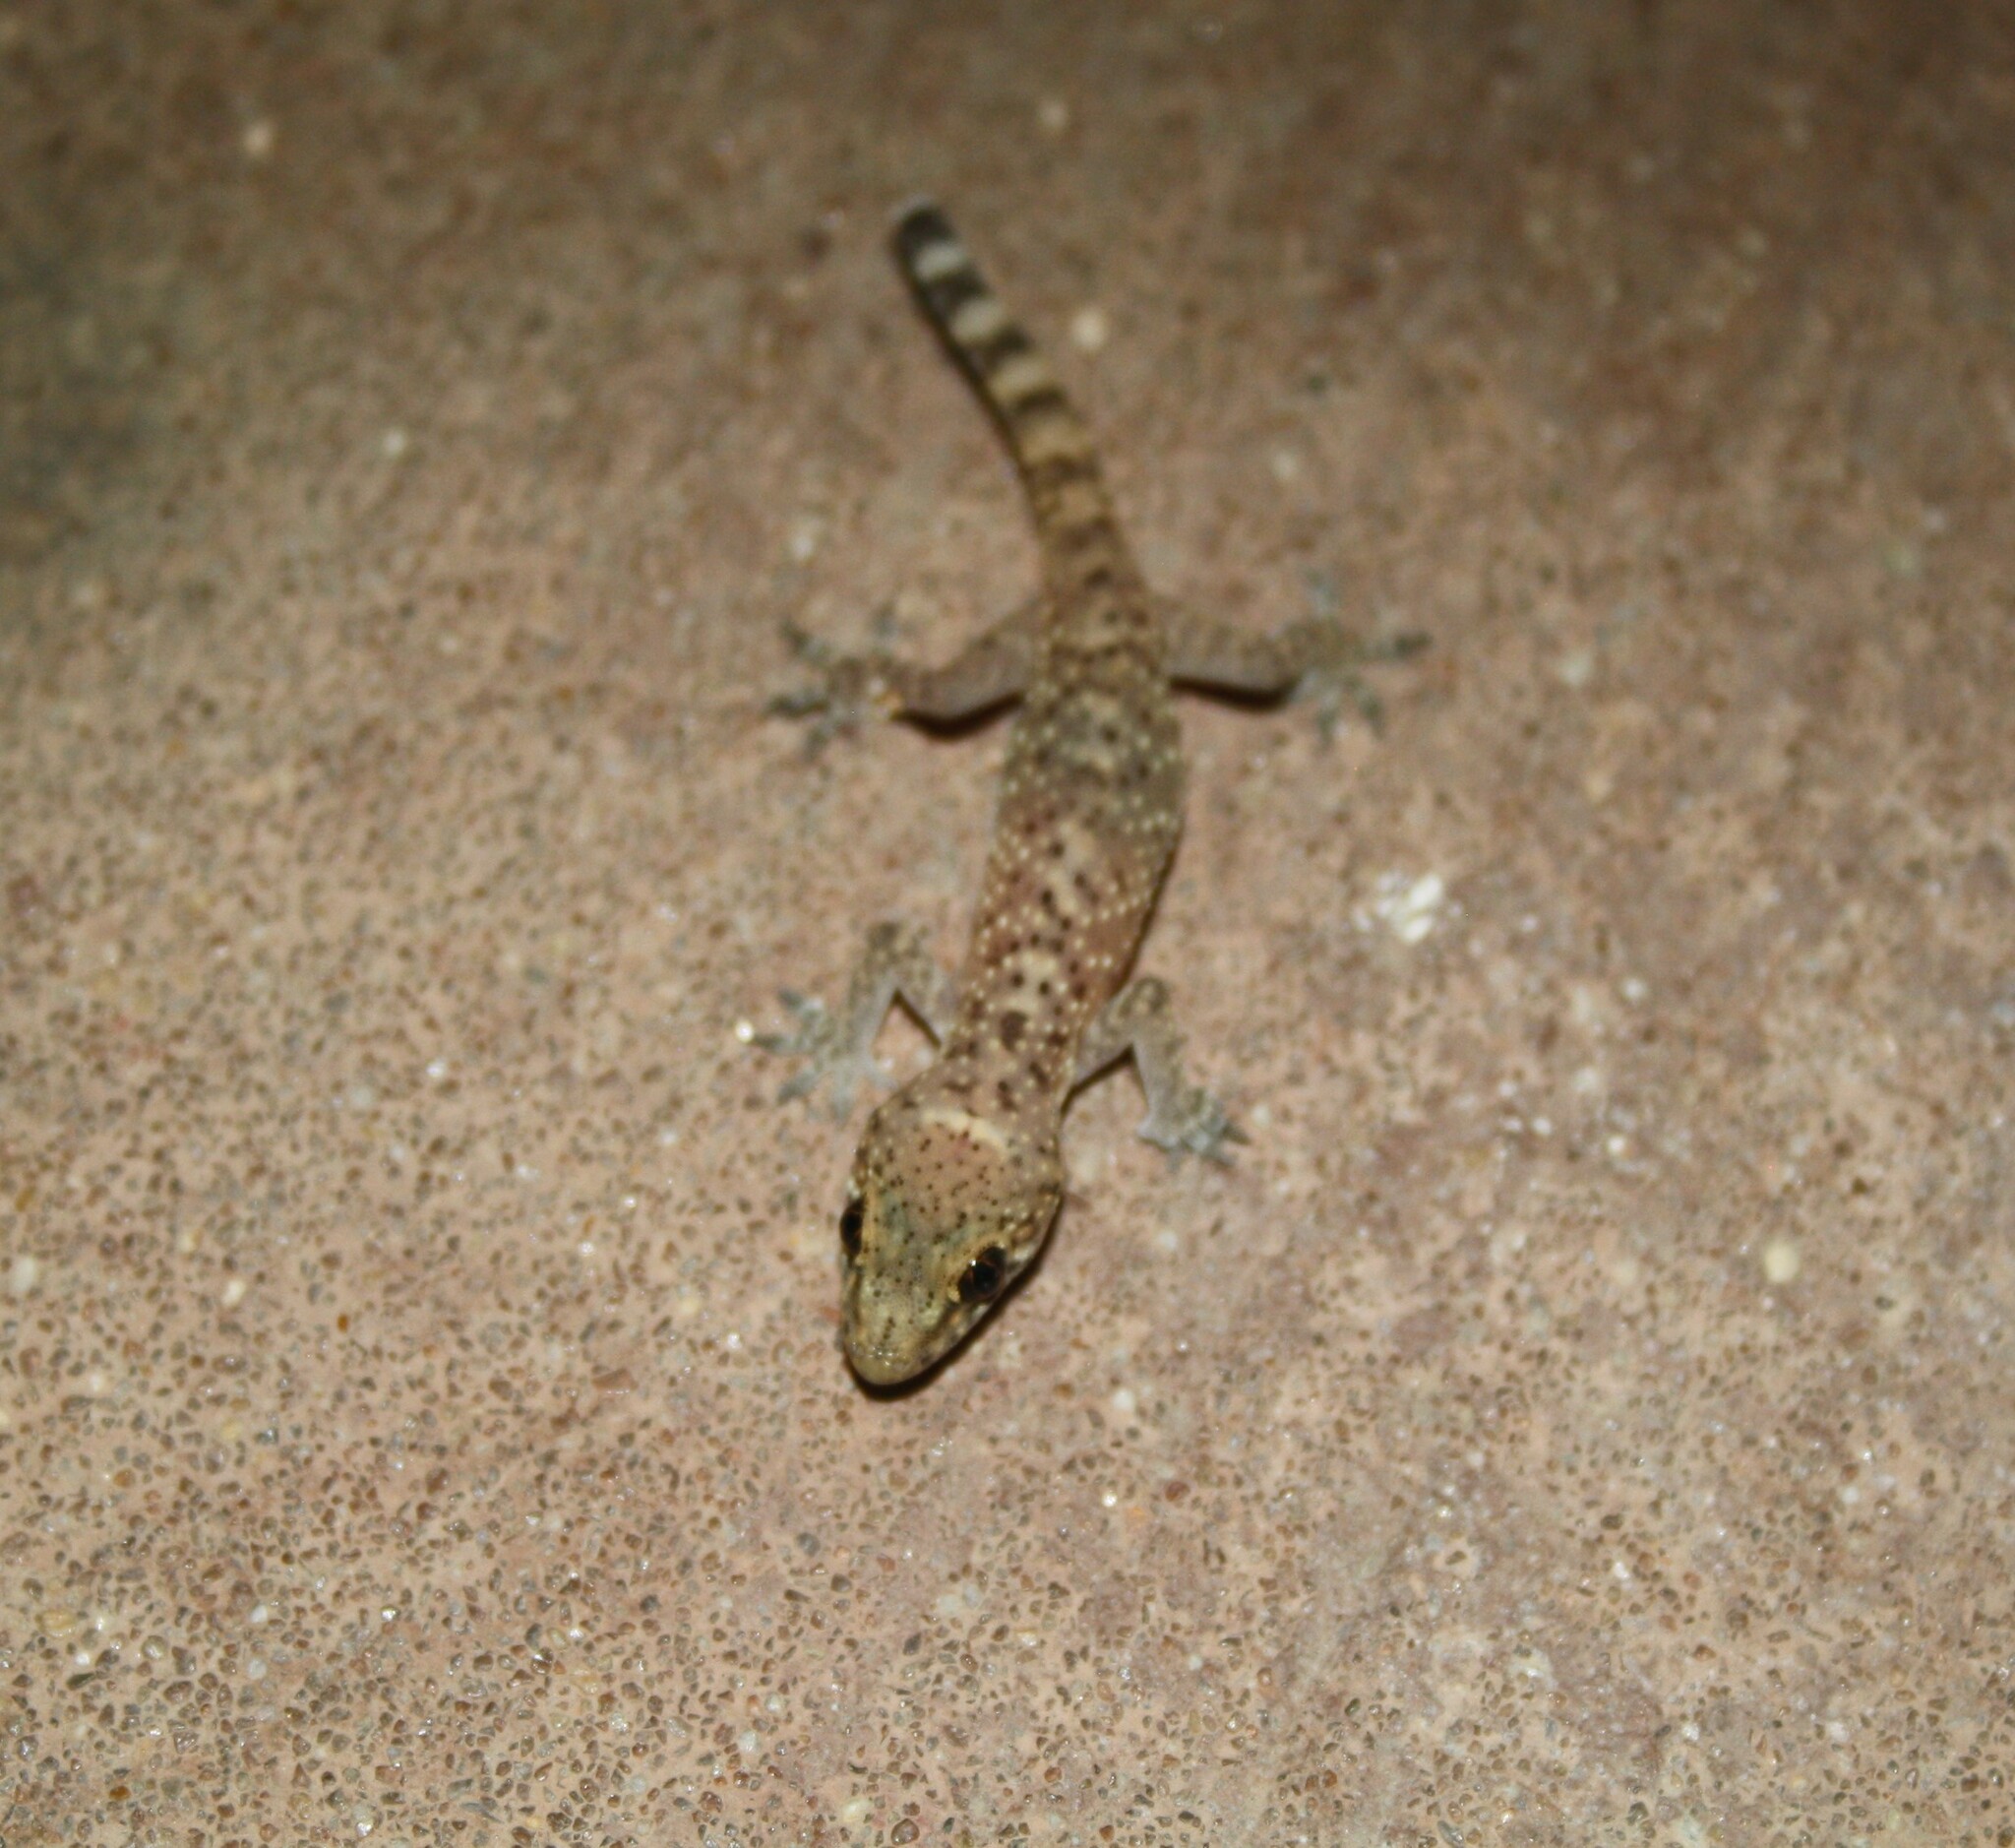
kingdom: Animalia
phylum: Chordata
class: Squamata
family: Gekkonidae
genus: Hemidactylus
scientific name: Hemidactylus turcicus
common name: Turkish gecko
